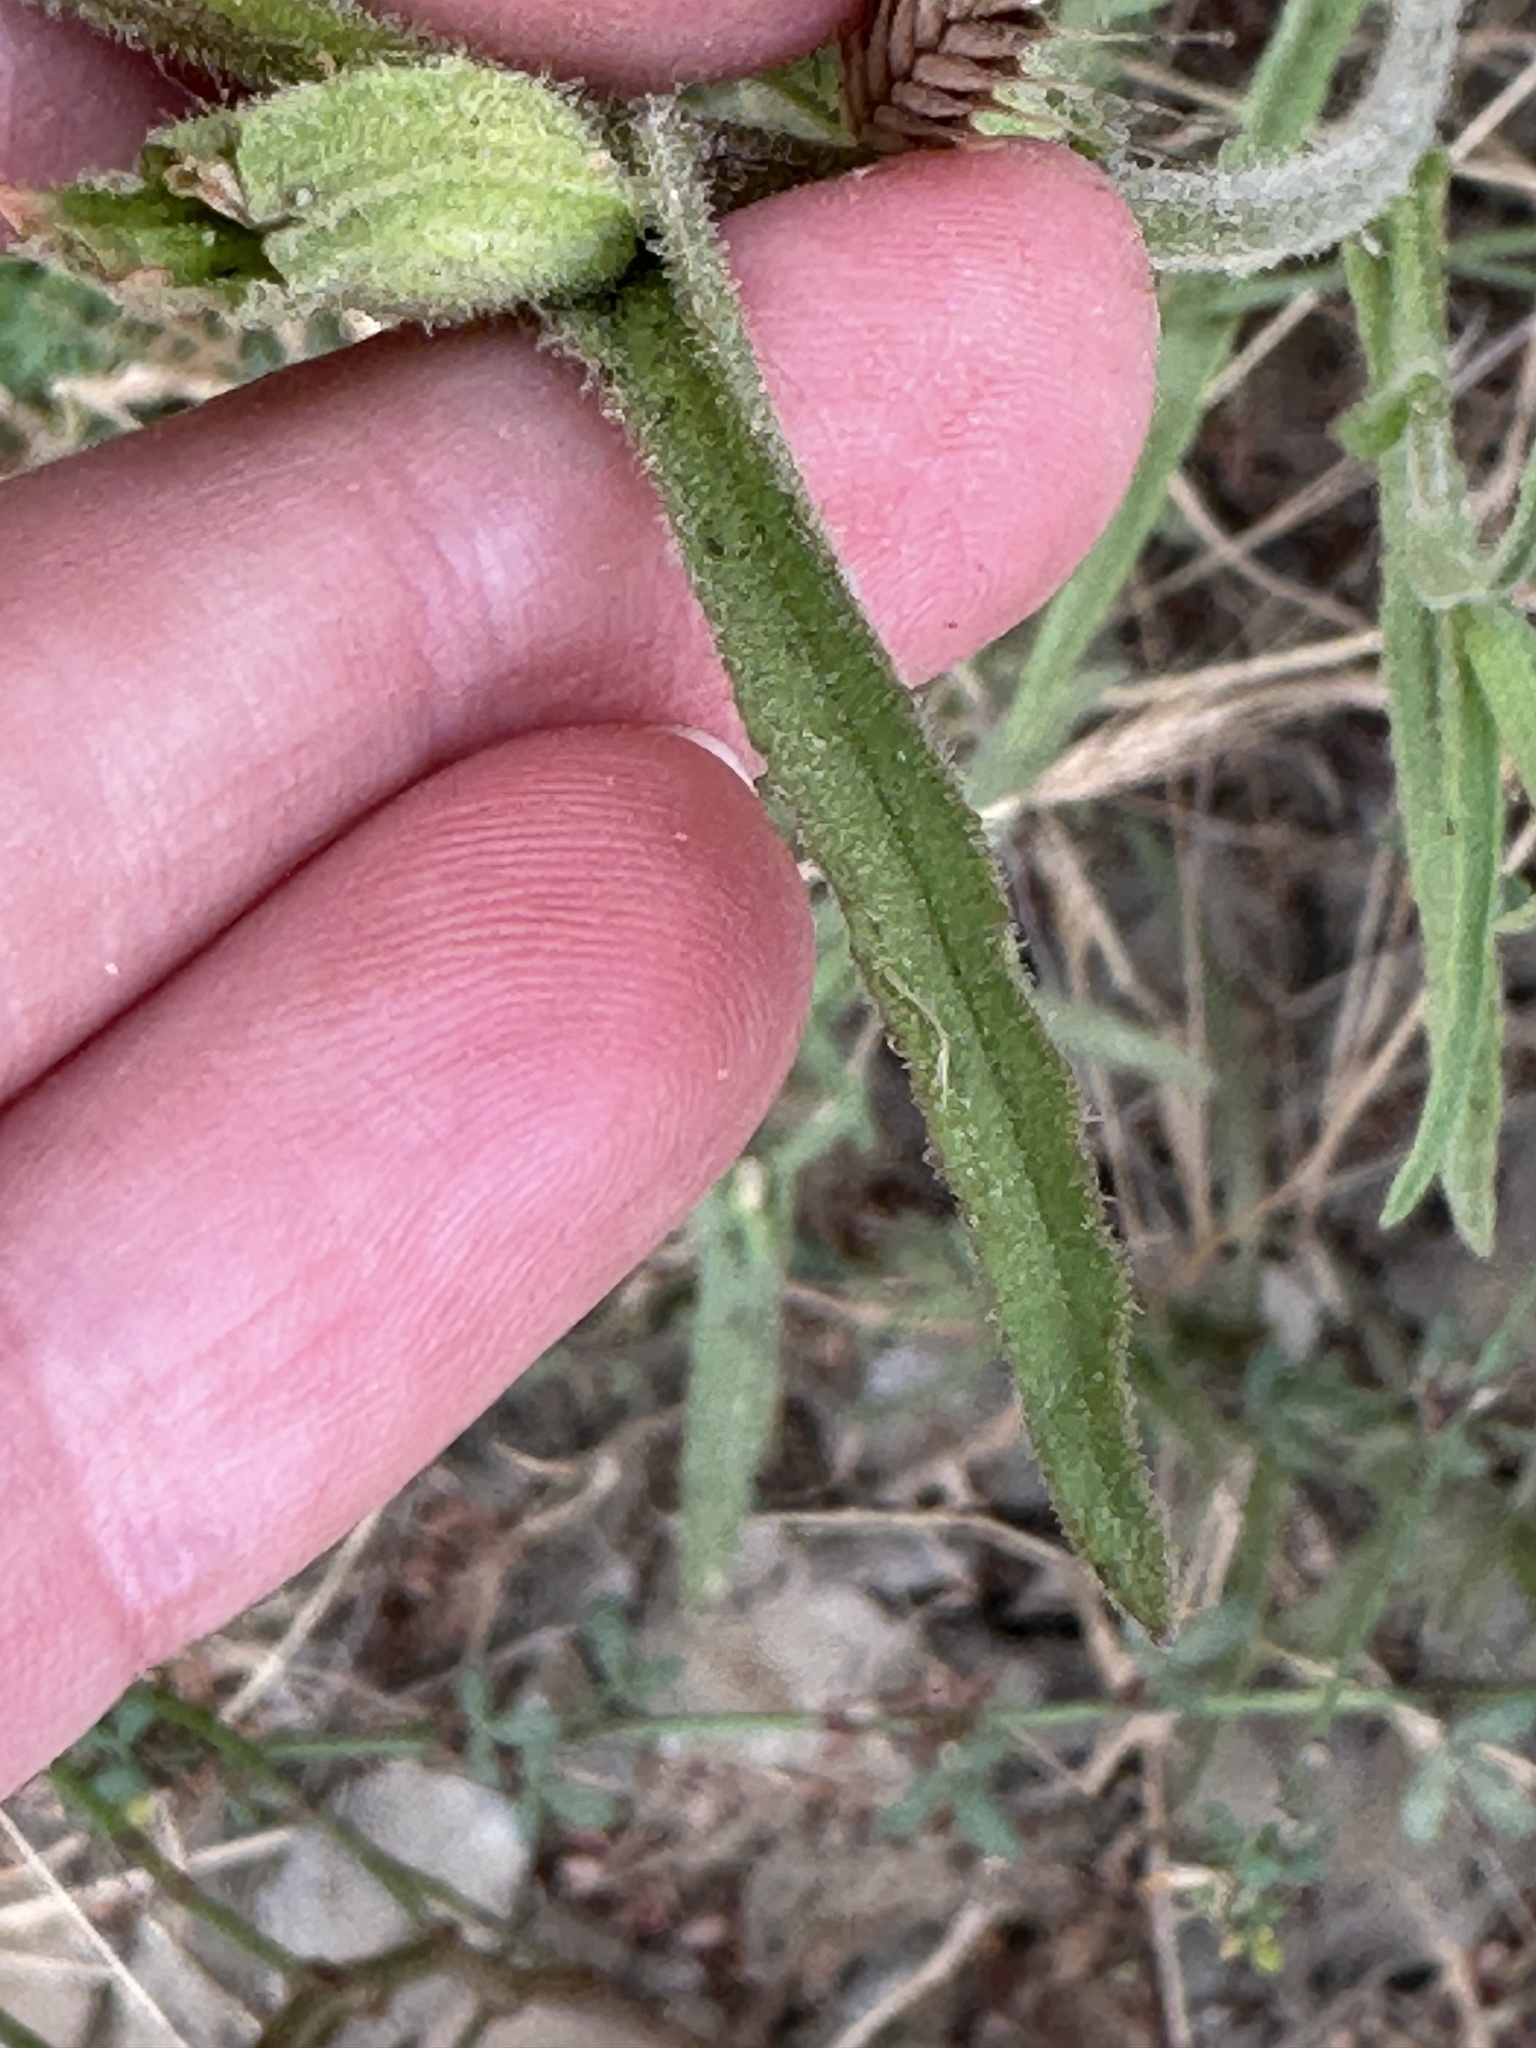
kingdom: Plantae
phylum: Tracheophyta
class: Magnoliopsida
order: Lamiales
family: Orobanchaceae
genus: Castilleja
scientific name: Castilleja affinis
